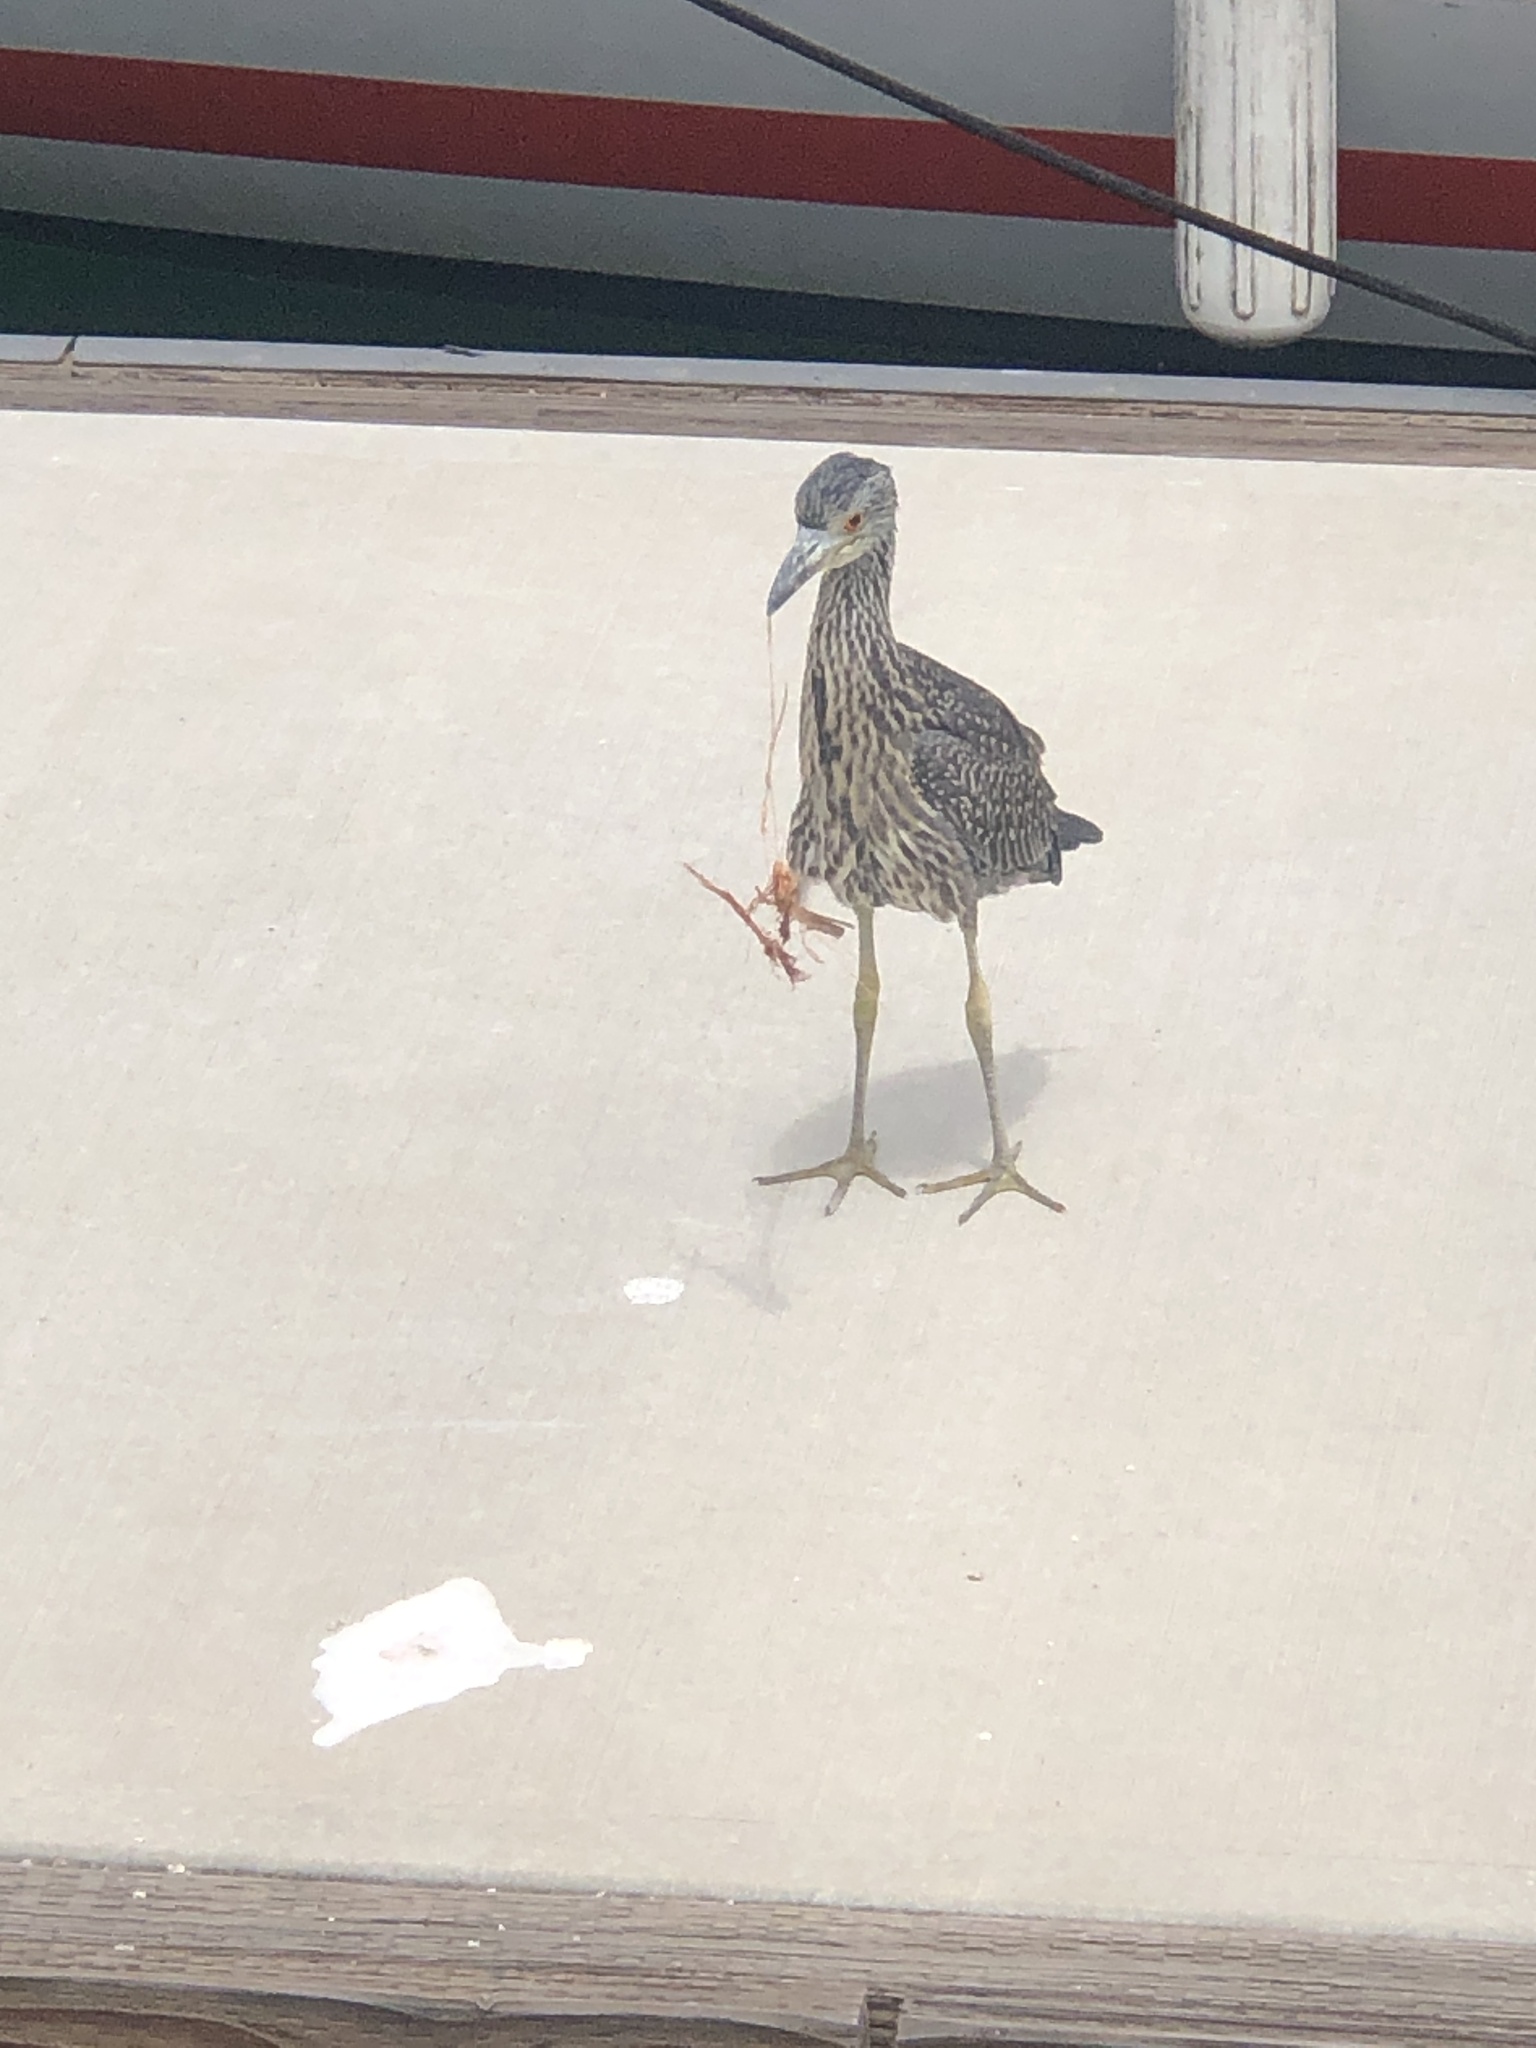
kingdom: Animalia
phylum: Chordata
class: Aves
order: Pelecaniformes
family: Ardeidae
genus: Nyctanassa
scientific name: Nyctanassa violacea
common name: Yellow-crowned night heron
